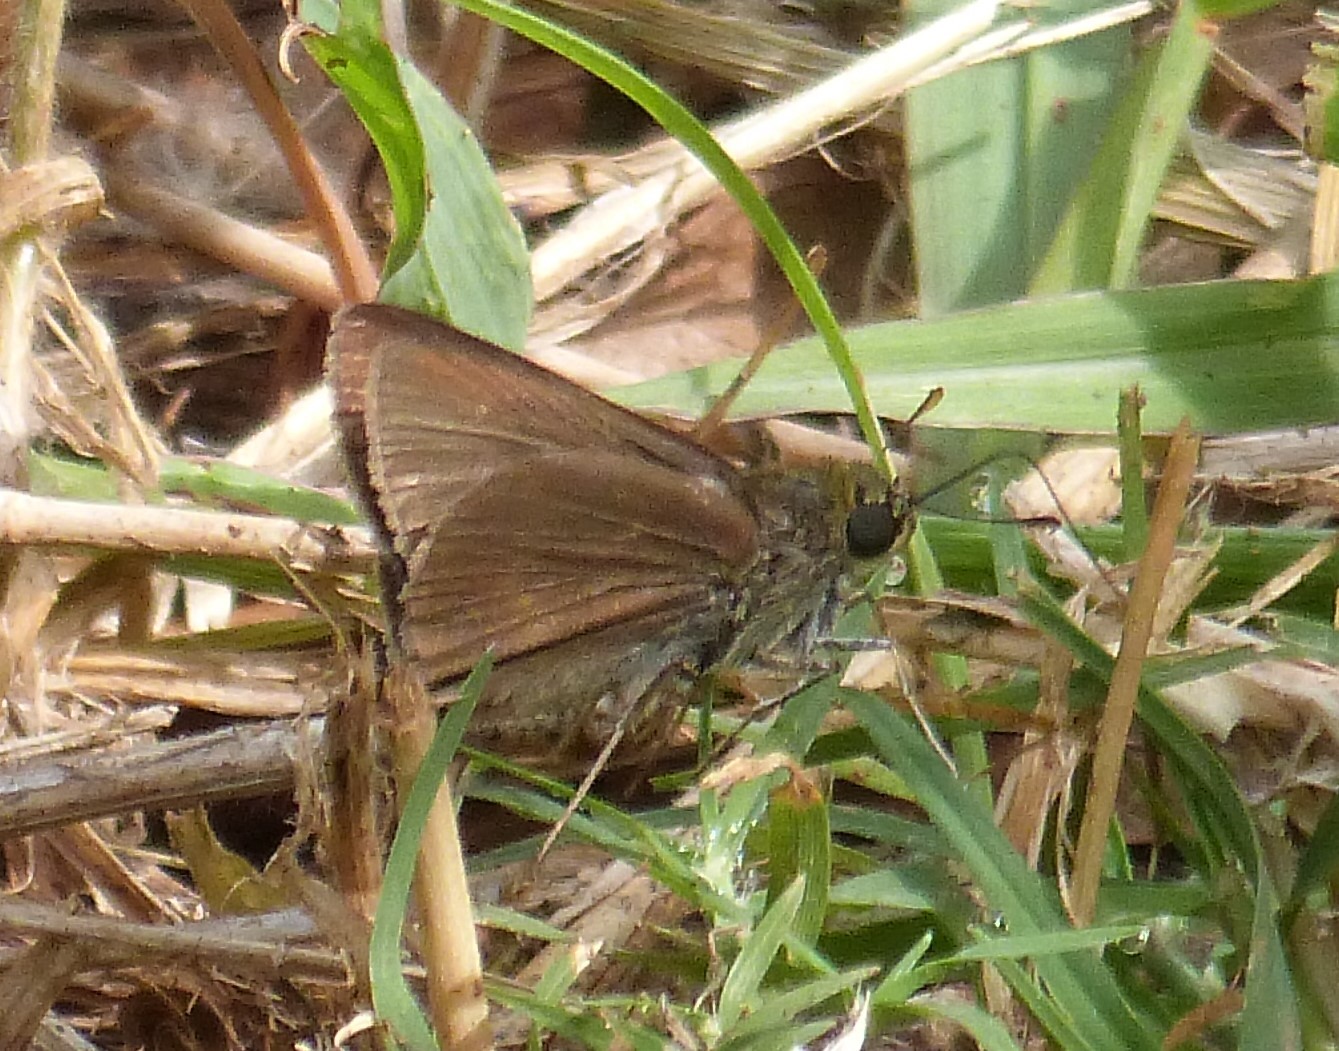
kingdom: Animalia
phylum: Arthropoda
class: Insecta
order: Lepidoptera
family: Hesperiidae
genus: Euphyes
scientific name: Euphyes vestris
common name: Dun skipper
